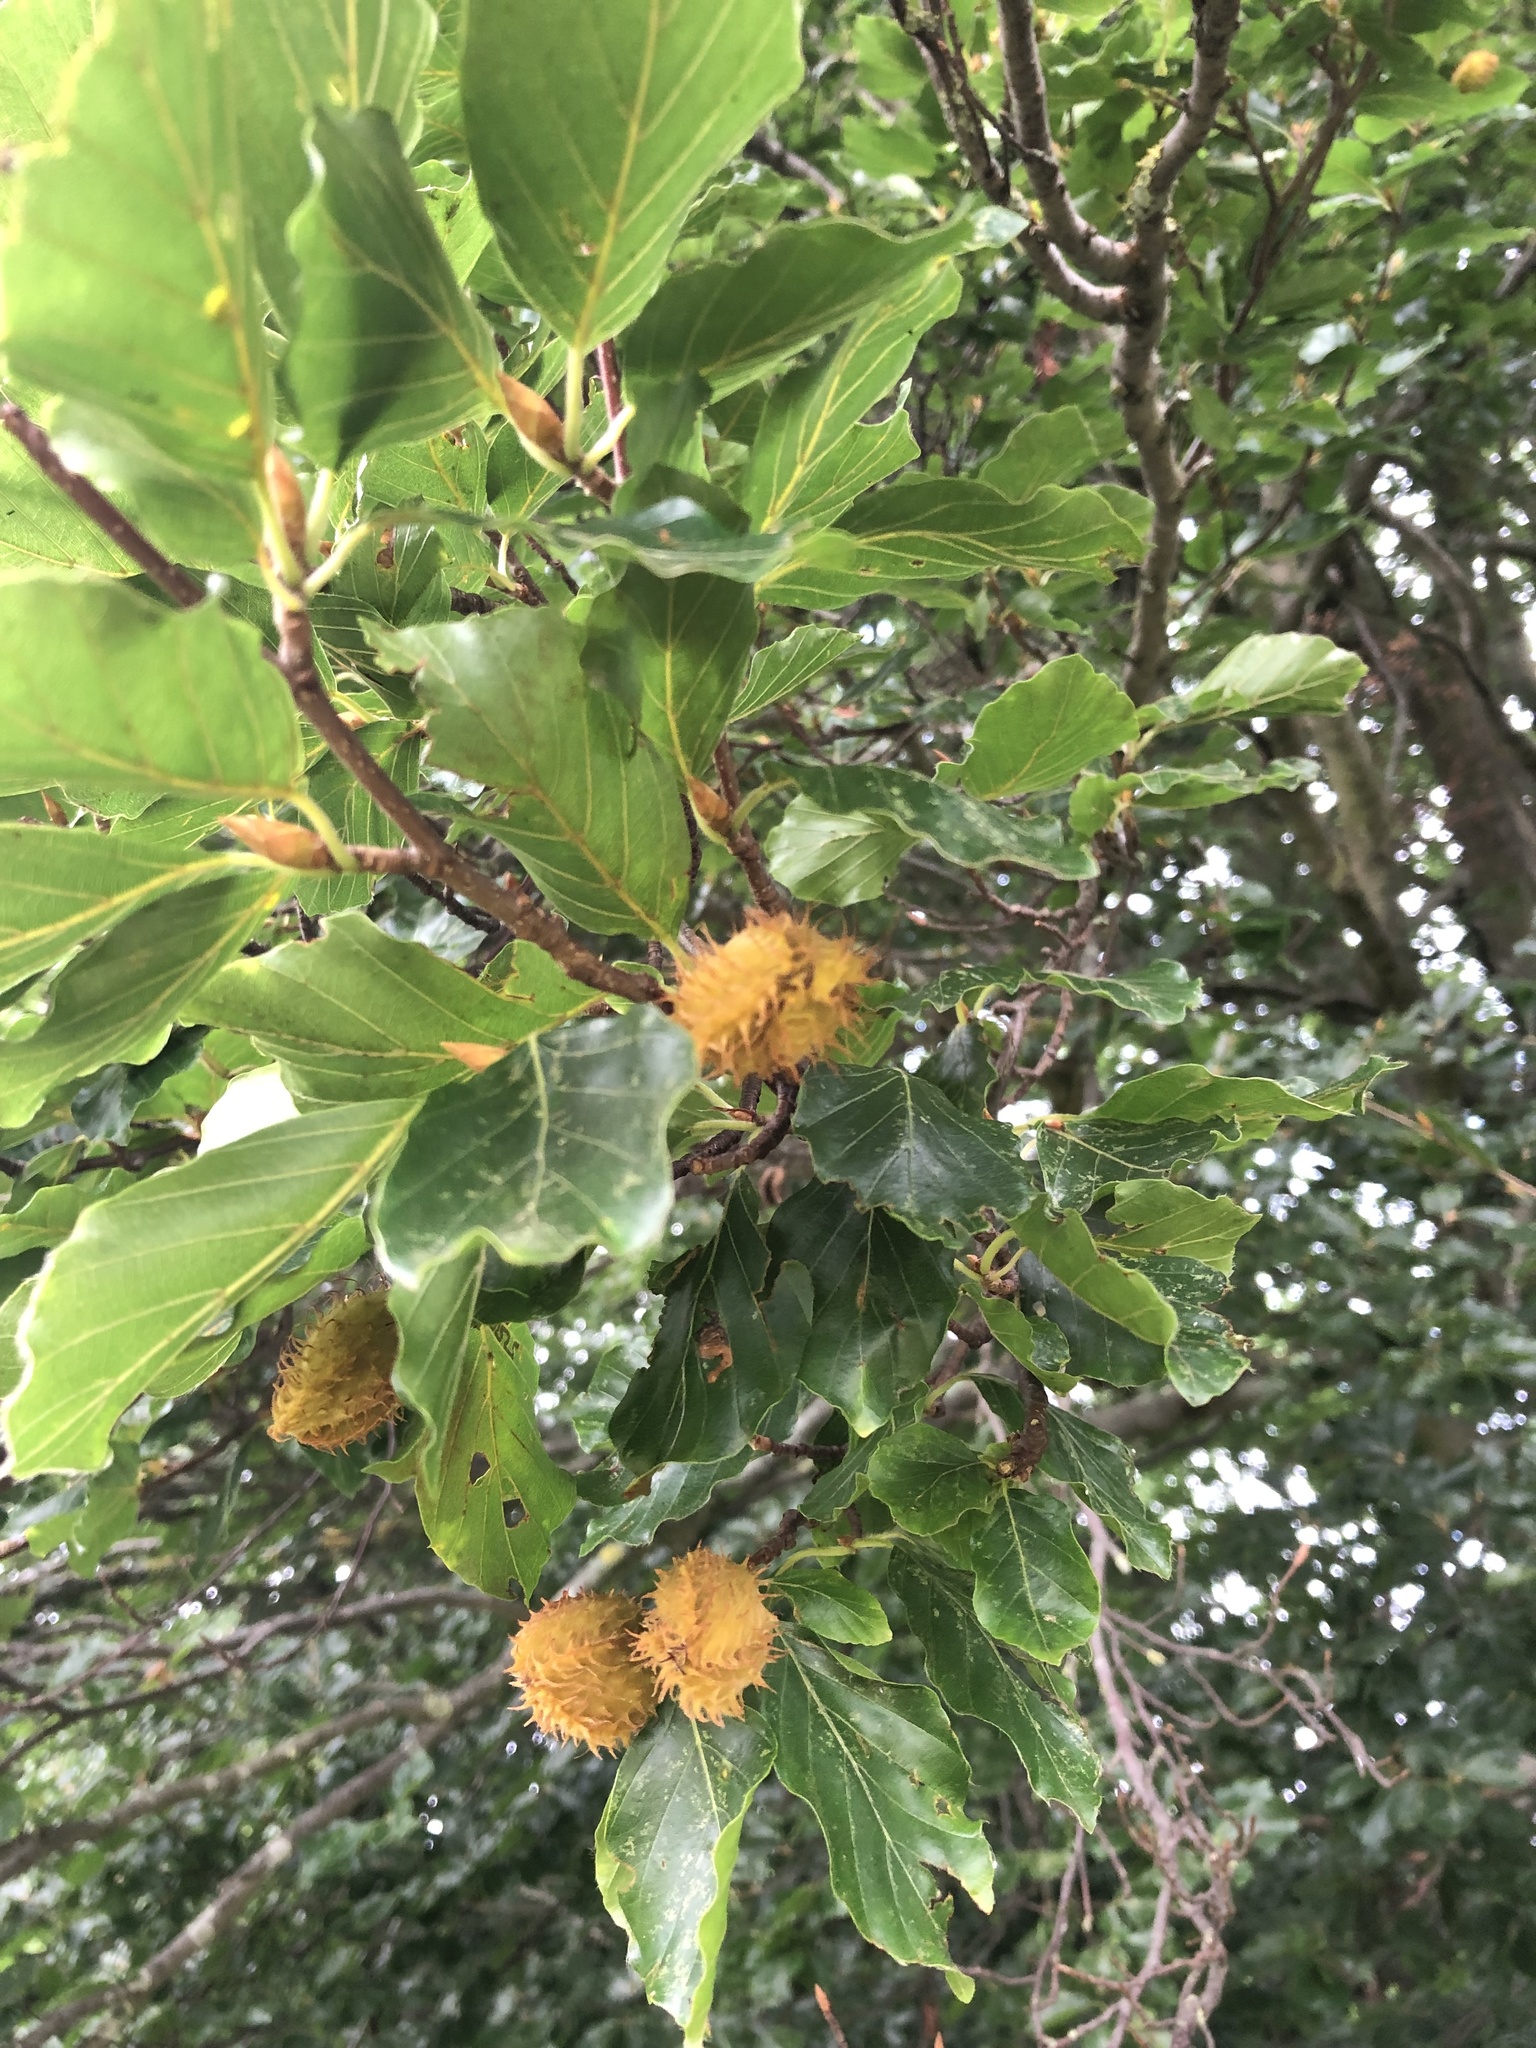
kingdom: Plantae
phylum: Tracheophyta
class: Magnoliopsida
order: Fagales
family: Fagaceae
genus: Fagus
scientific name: Fagus sylvatica
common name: Beech
